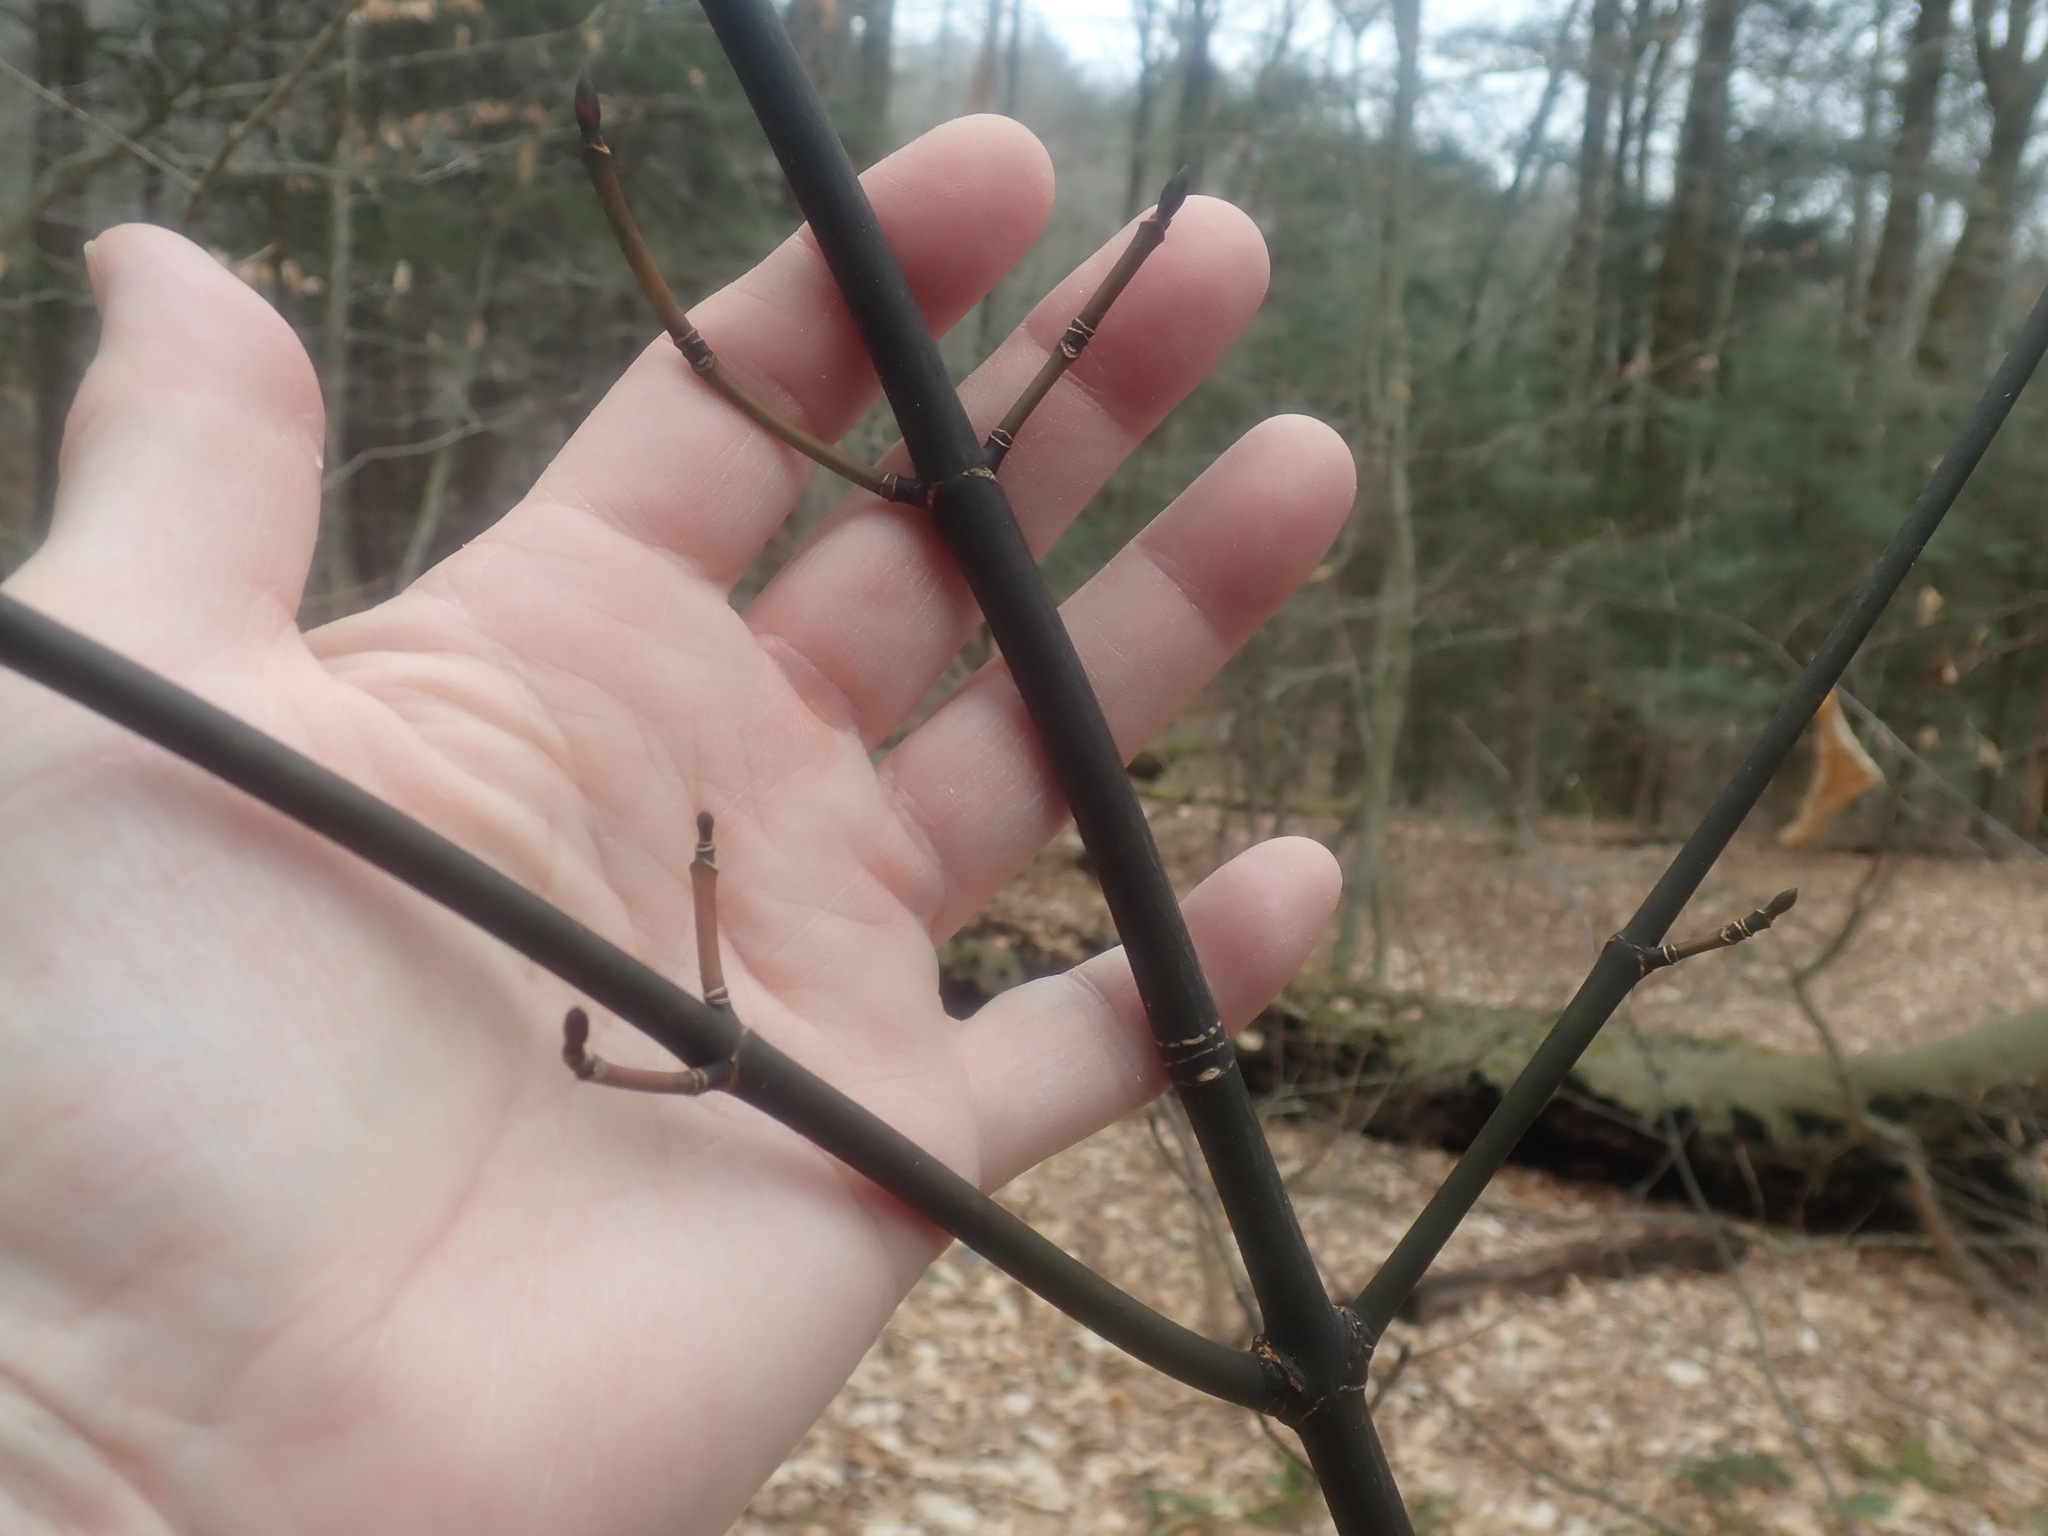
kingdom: Plantae
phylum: Tracheophyta
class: Magnoliopsida
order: Sapindales
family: Sapindaceae
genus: Acer
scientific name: Acer pensylvanicum
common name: Moosewood
